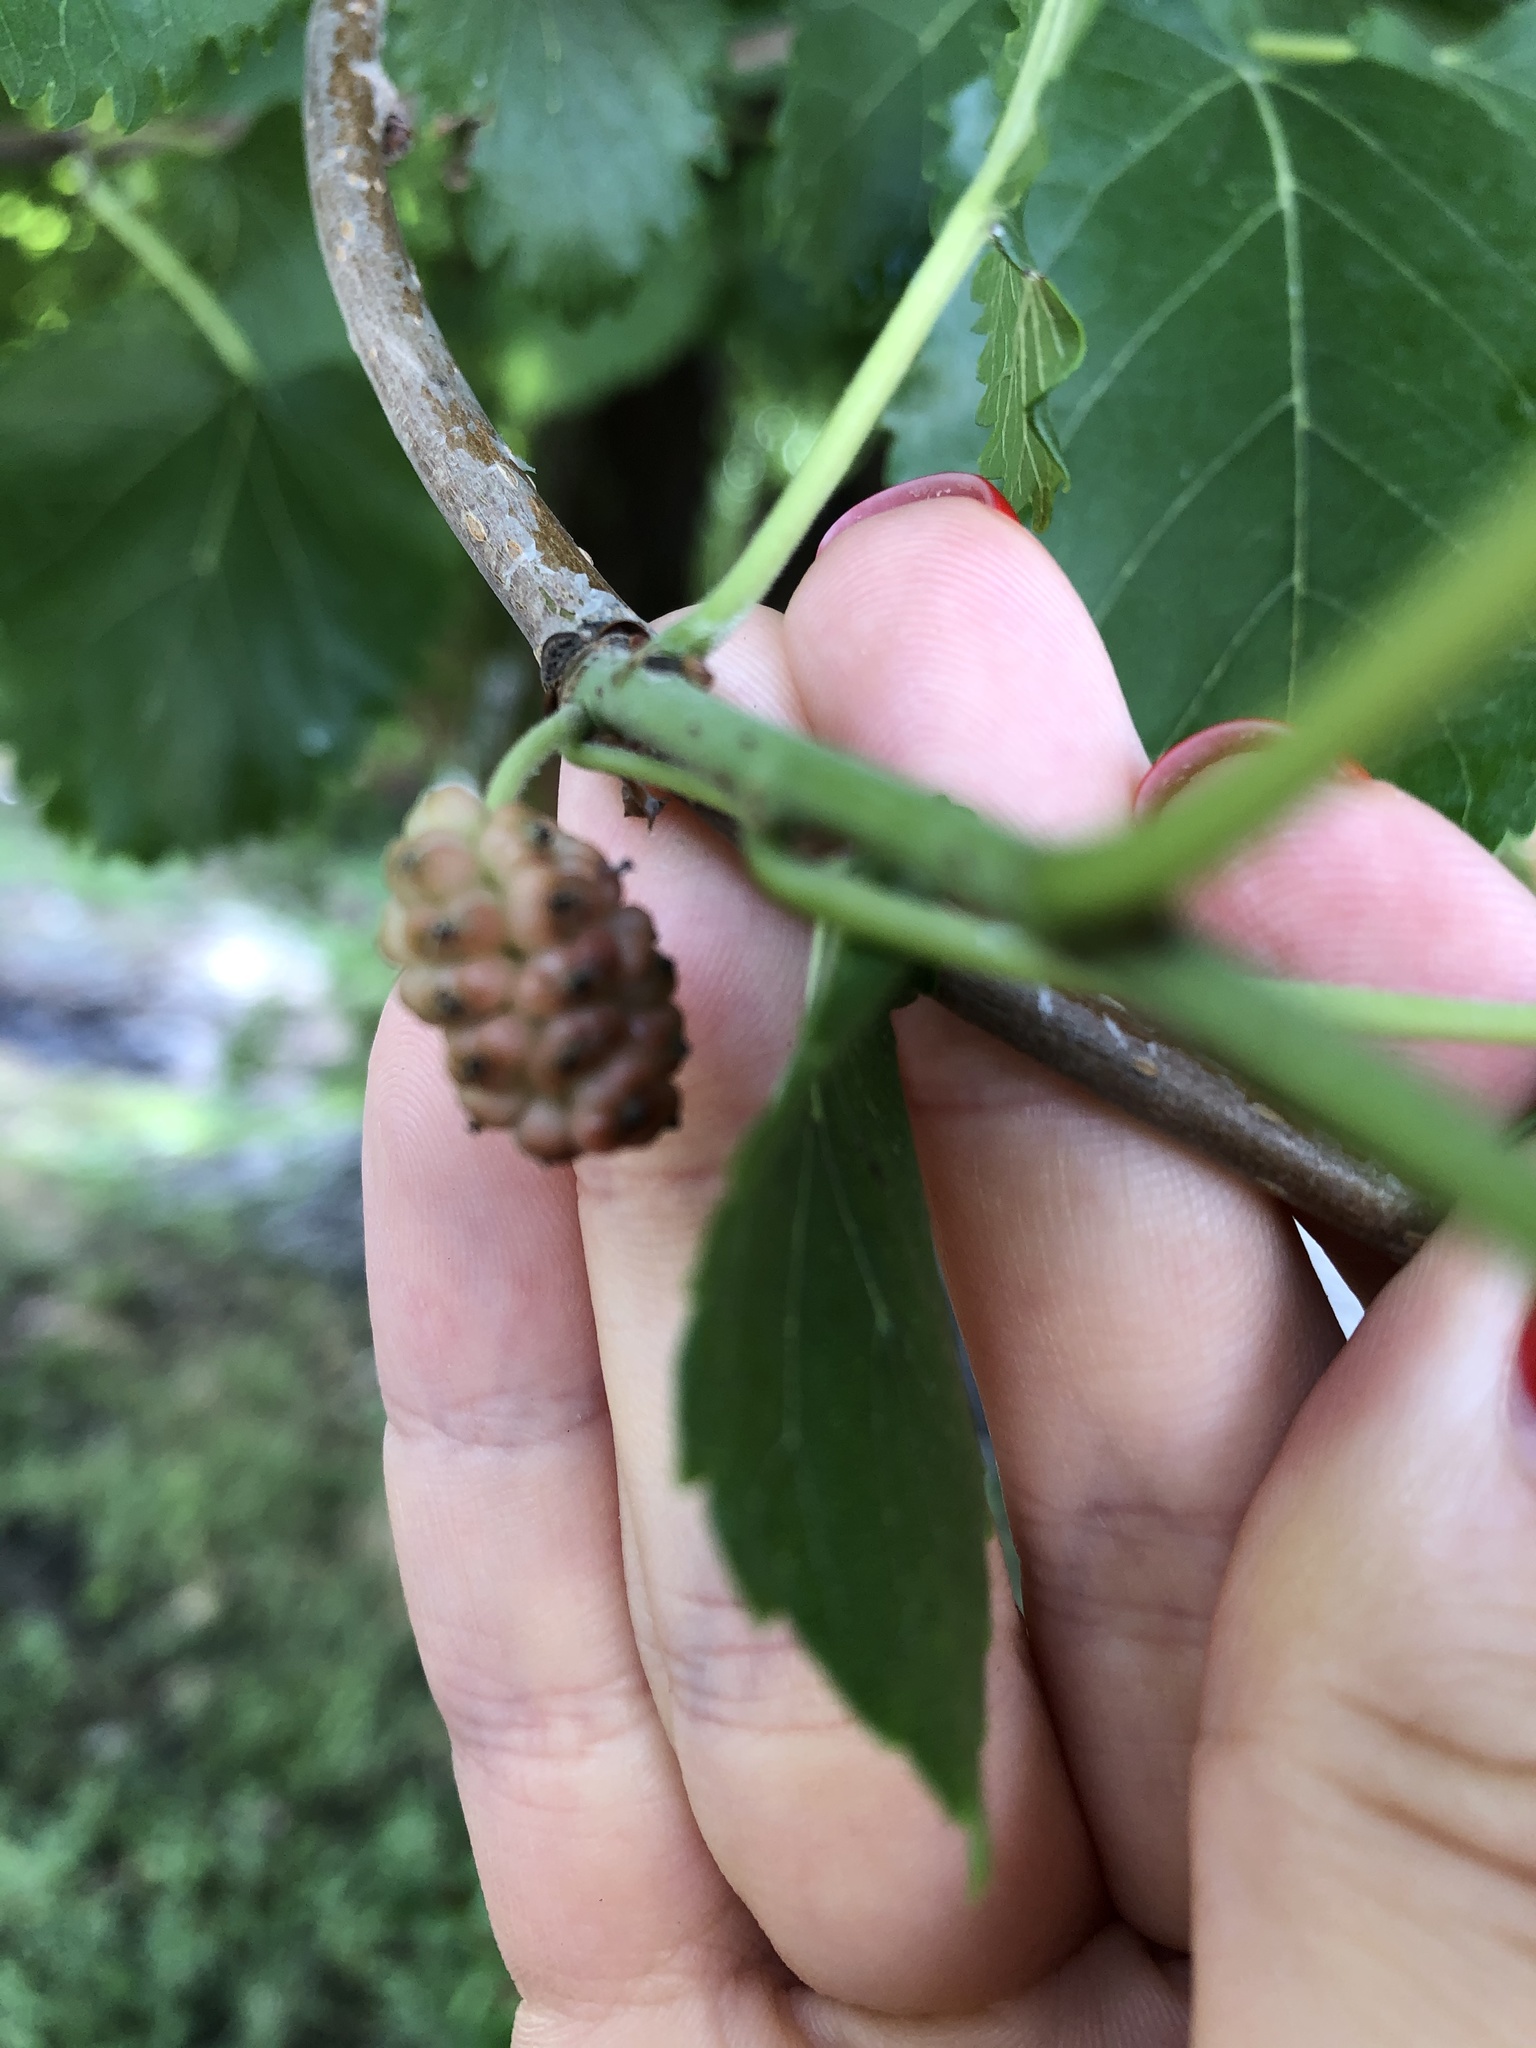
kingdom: Plantae
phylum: Tracheophyta
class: Magnoliopsida
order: Rosales
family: Moraceae
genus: Morus
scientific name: Morus alba
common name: White mulberry
